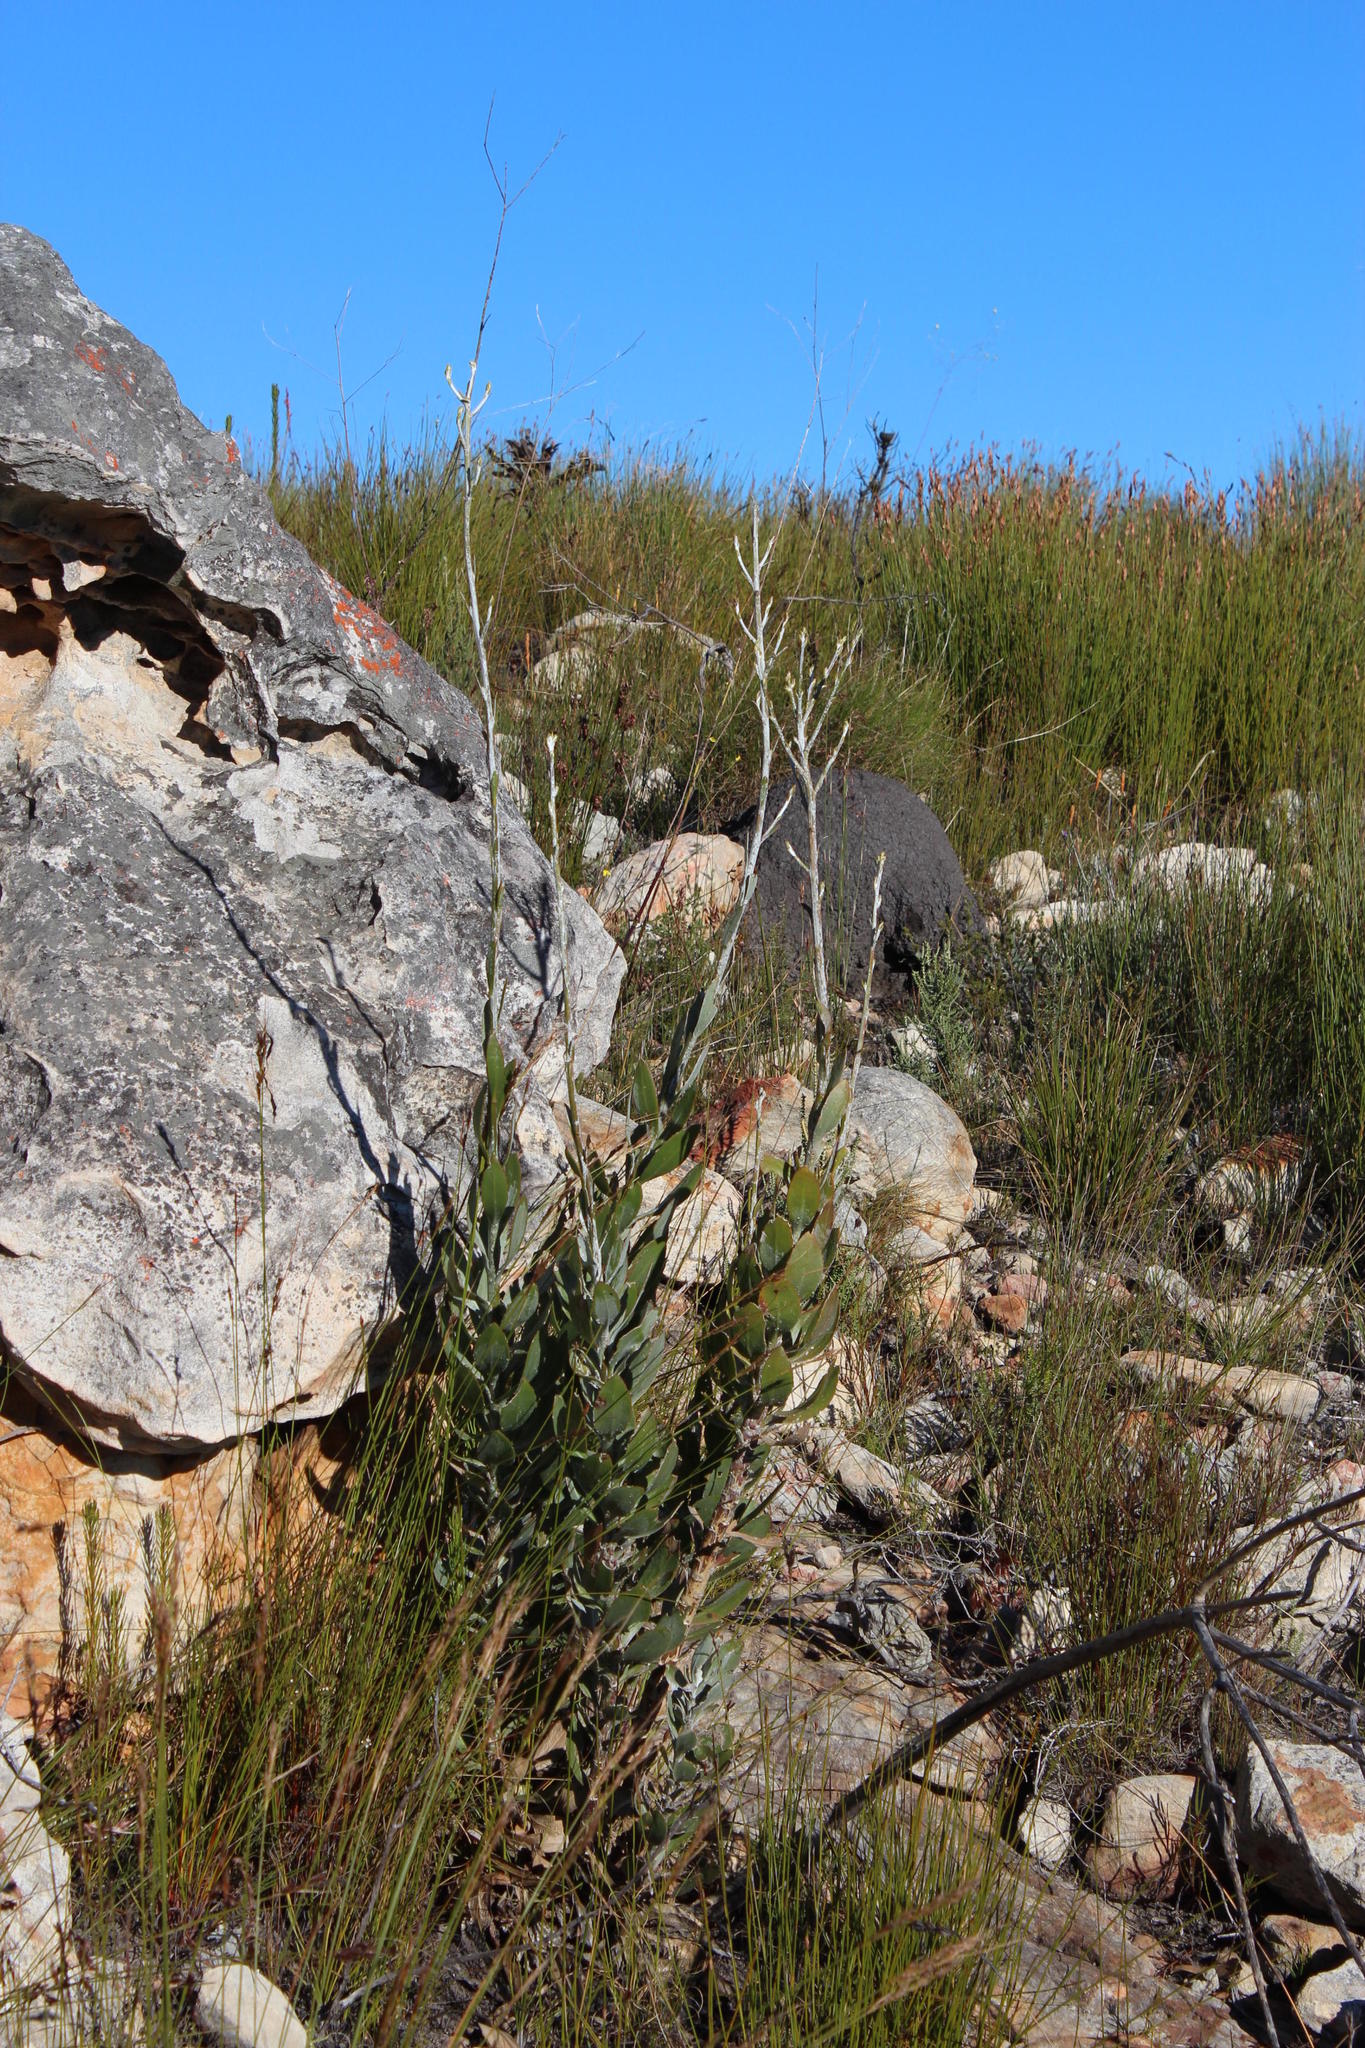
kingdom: Plantae
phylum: Tracheophyta
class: Magnoliopsida
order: Asterales
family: Asteraceae
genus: Osteospermum
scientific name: Osteospermum junceum
